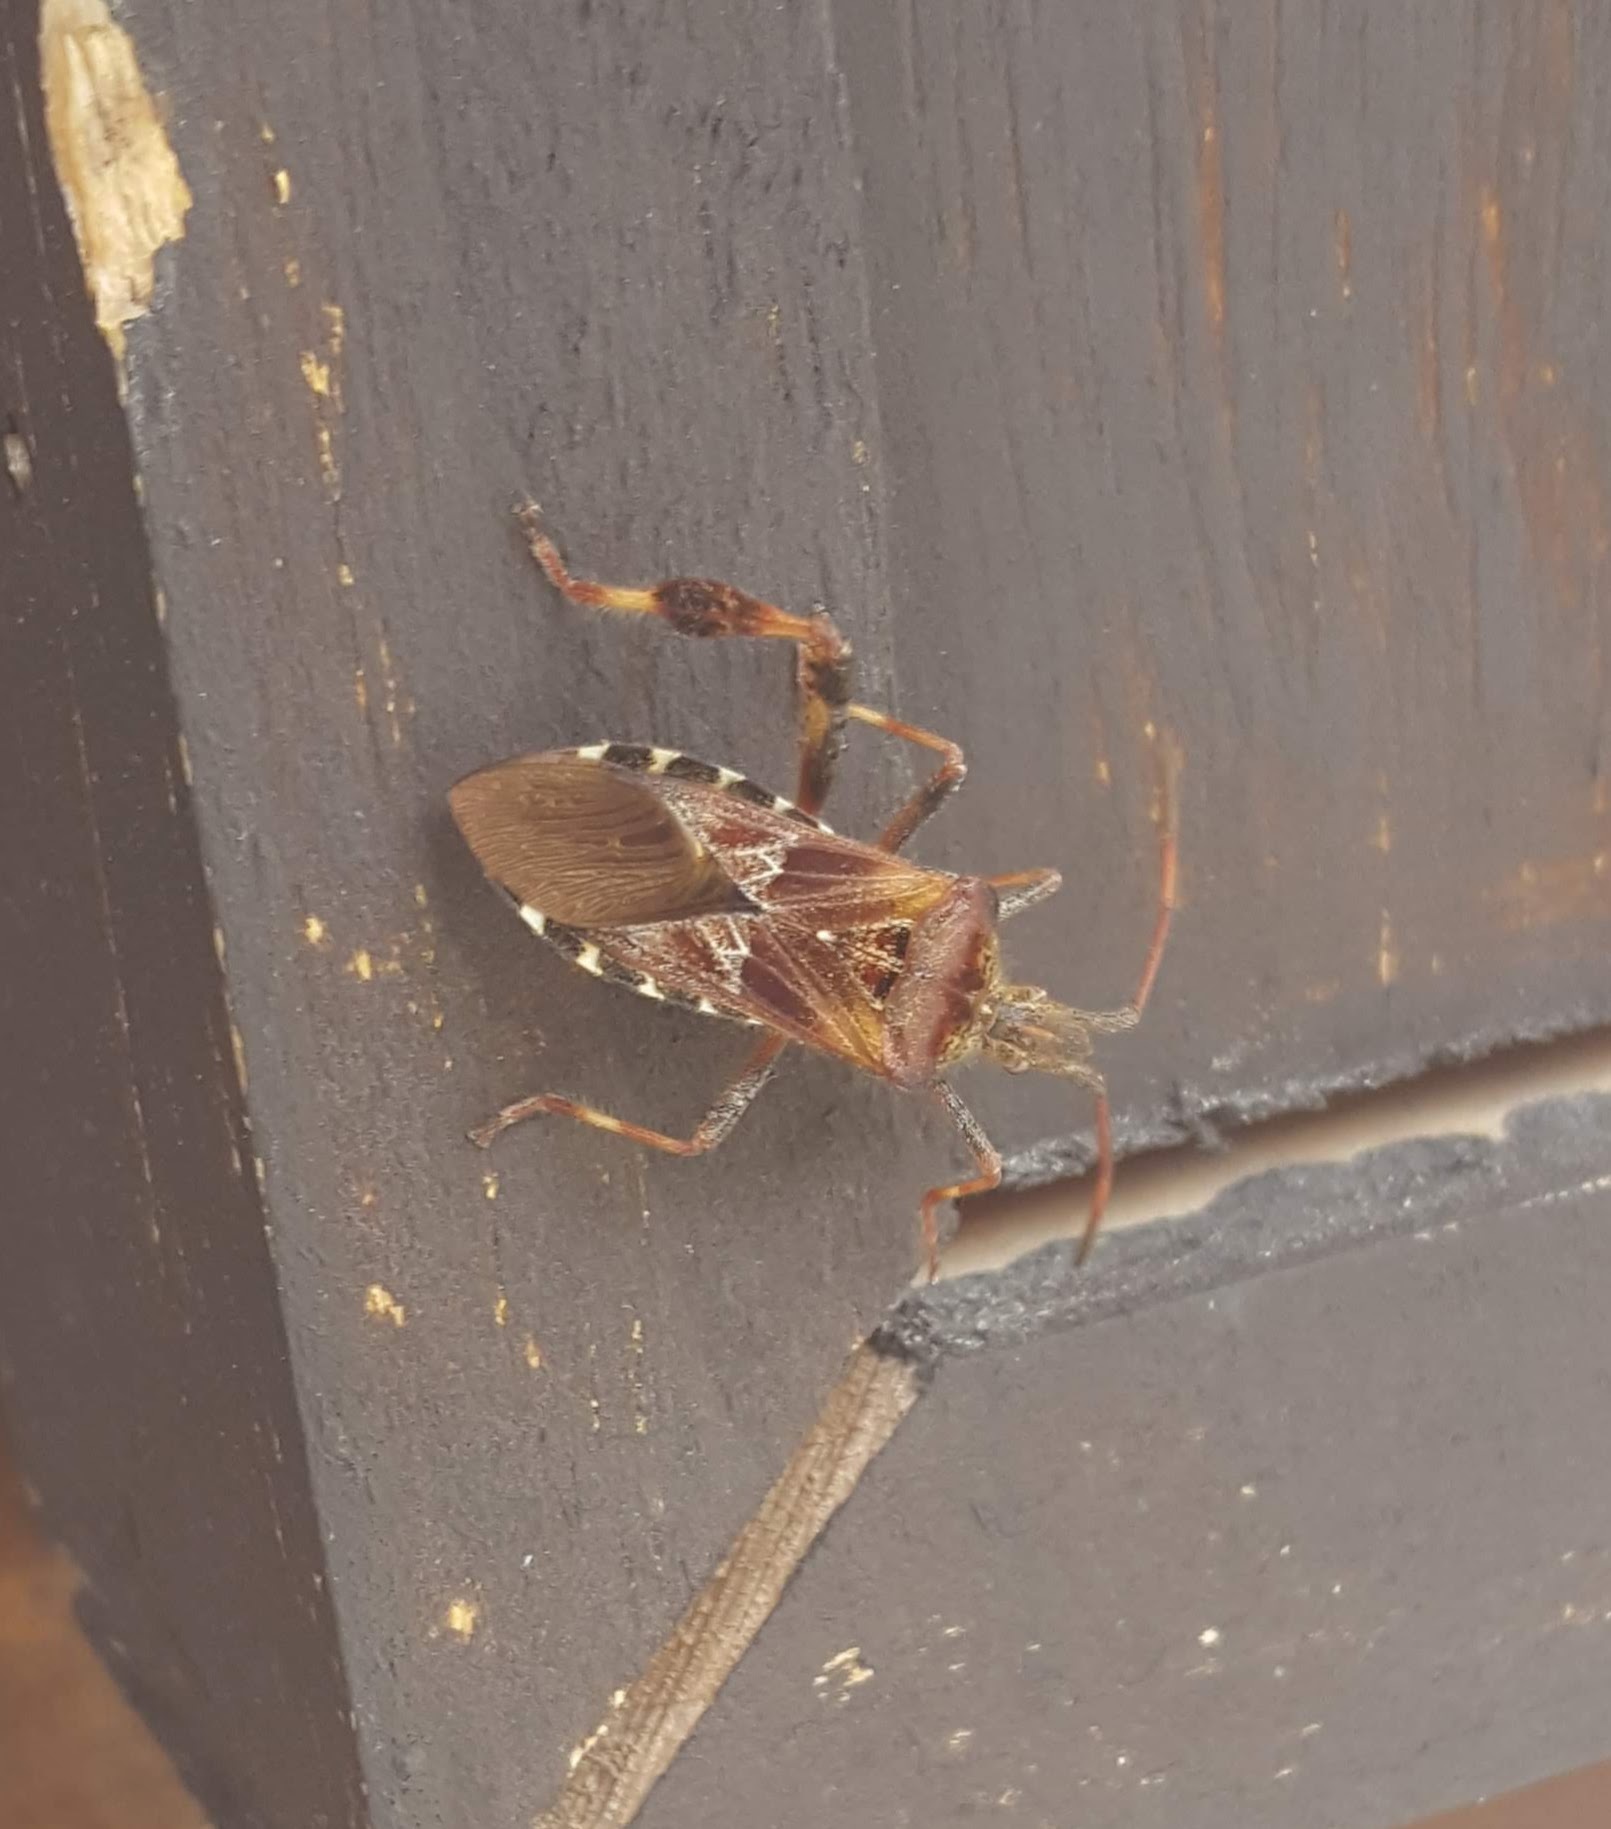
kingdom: Animalia
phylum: Arthropoda
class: Insecta
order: Hemiptera
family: Coreidae
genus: Leptoglossus
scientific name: Leptoglossus occidentalis
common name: Western conifer-seed bug
